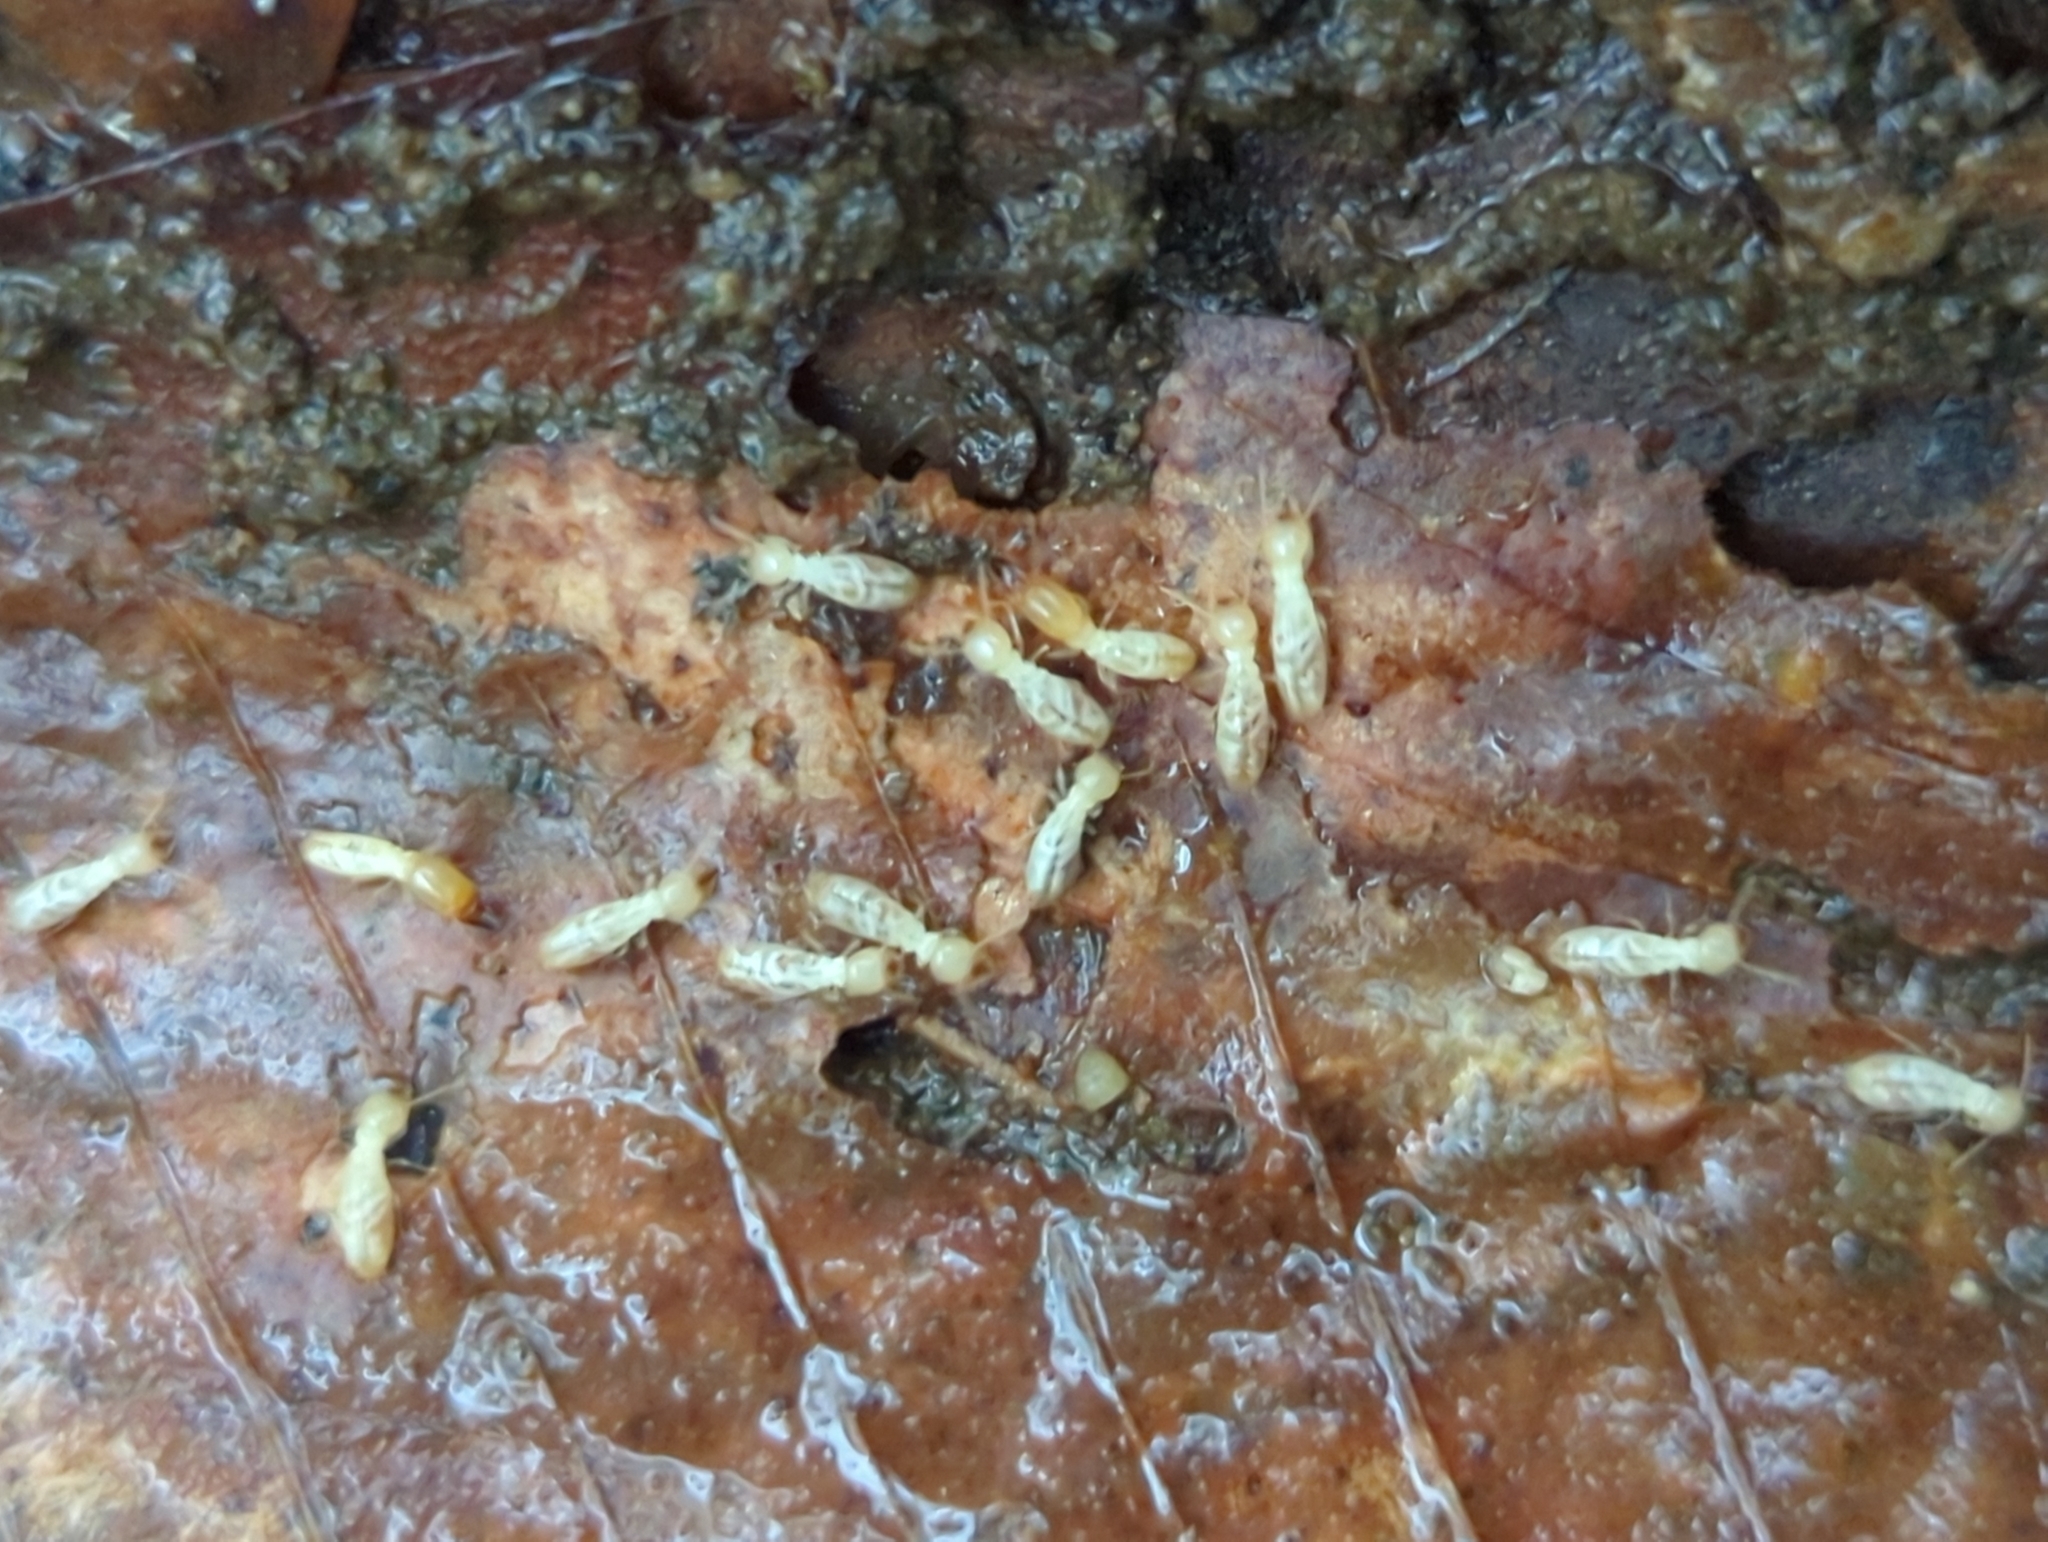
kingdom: Animalia
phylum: Arthropoda
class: Insecta
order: Blattodea
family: Rhinotermitidae
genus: Reticulitermes
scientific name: Reticulitermes flavipes
